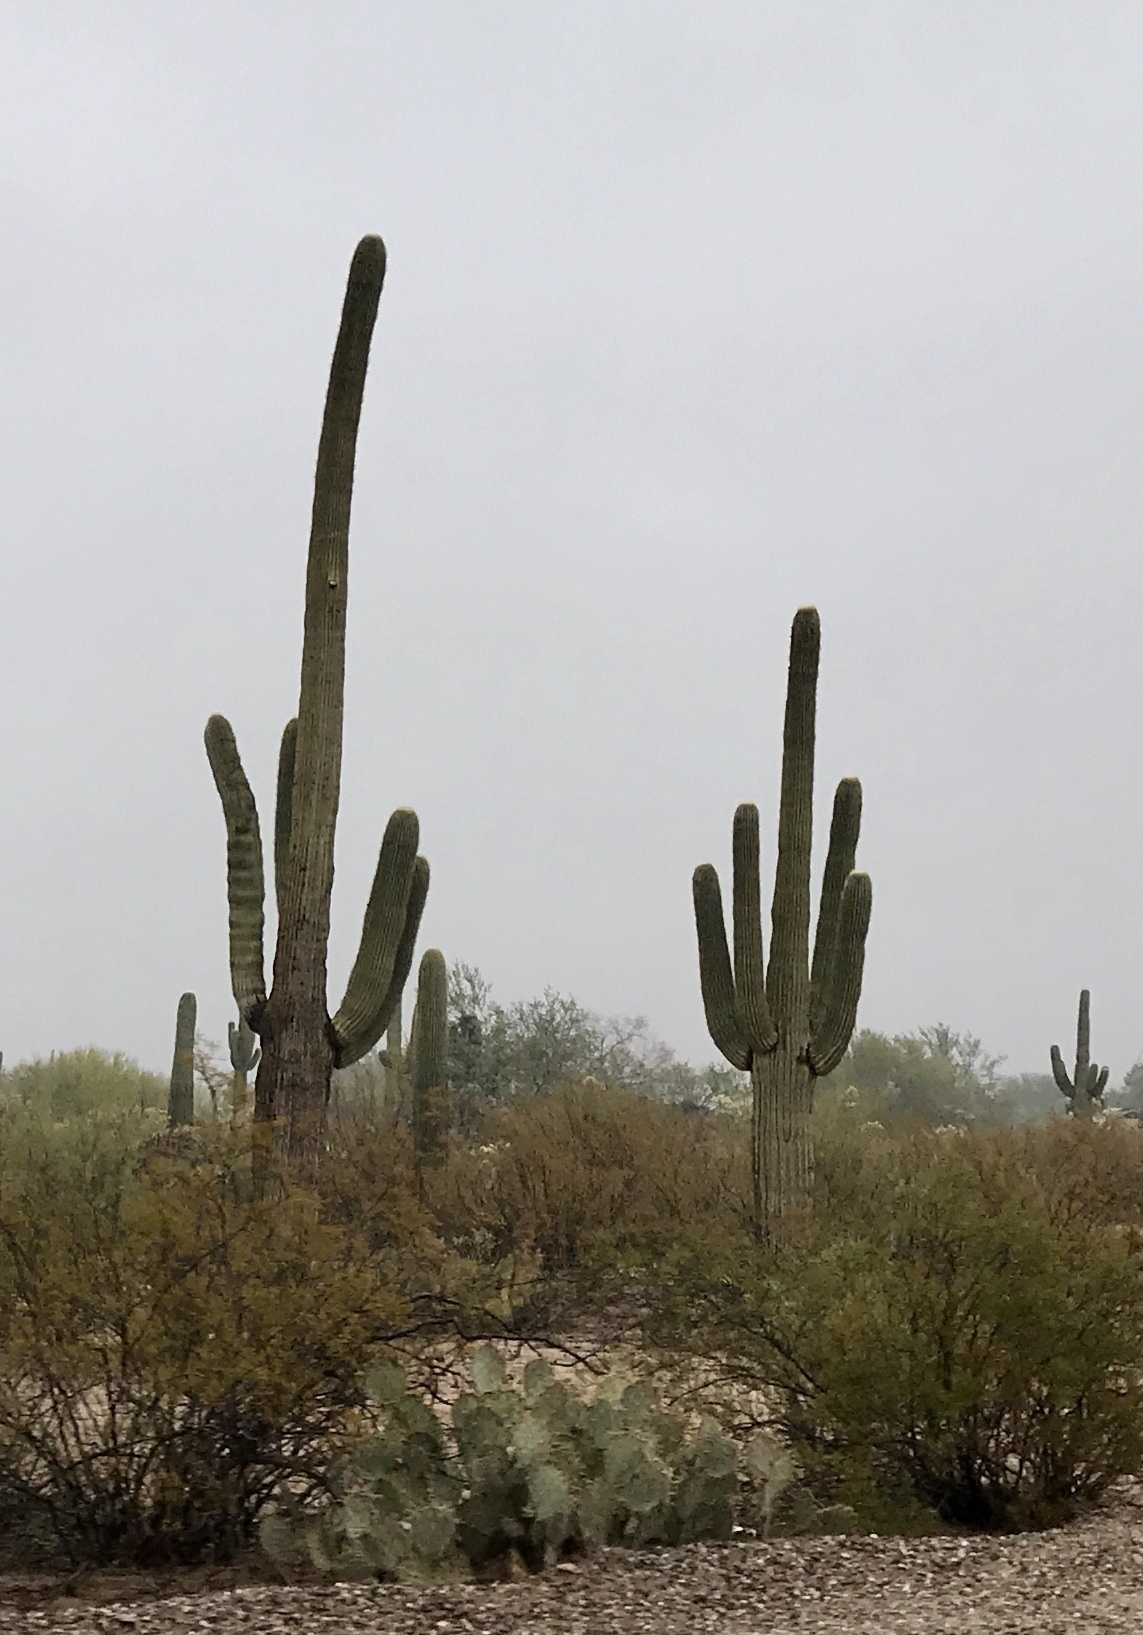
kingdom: Plantae
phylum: Tracheophyta
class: Magnoliopsida
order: Caryophyllales
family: Cactaceae
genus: Carnegiea
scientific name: Carnegiea gigantea
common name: Saguaro
